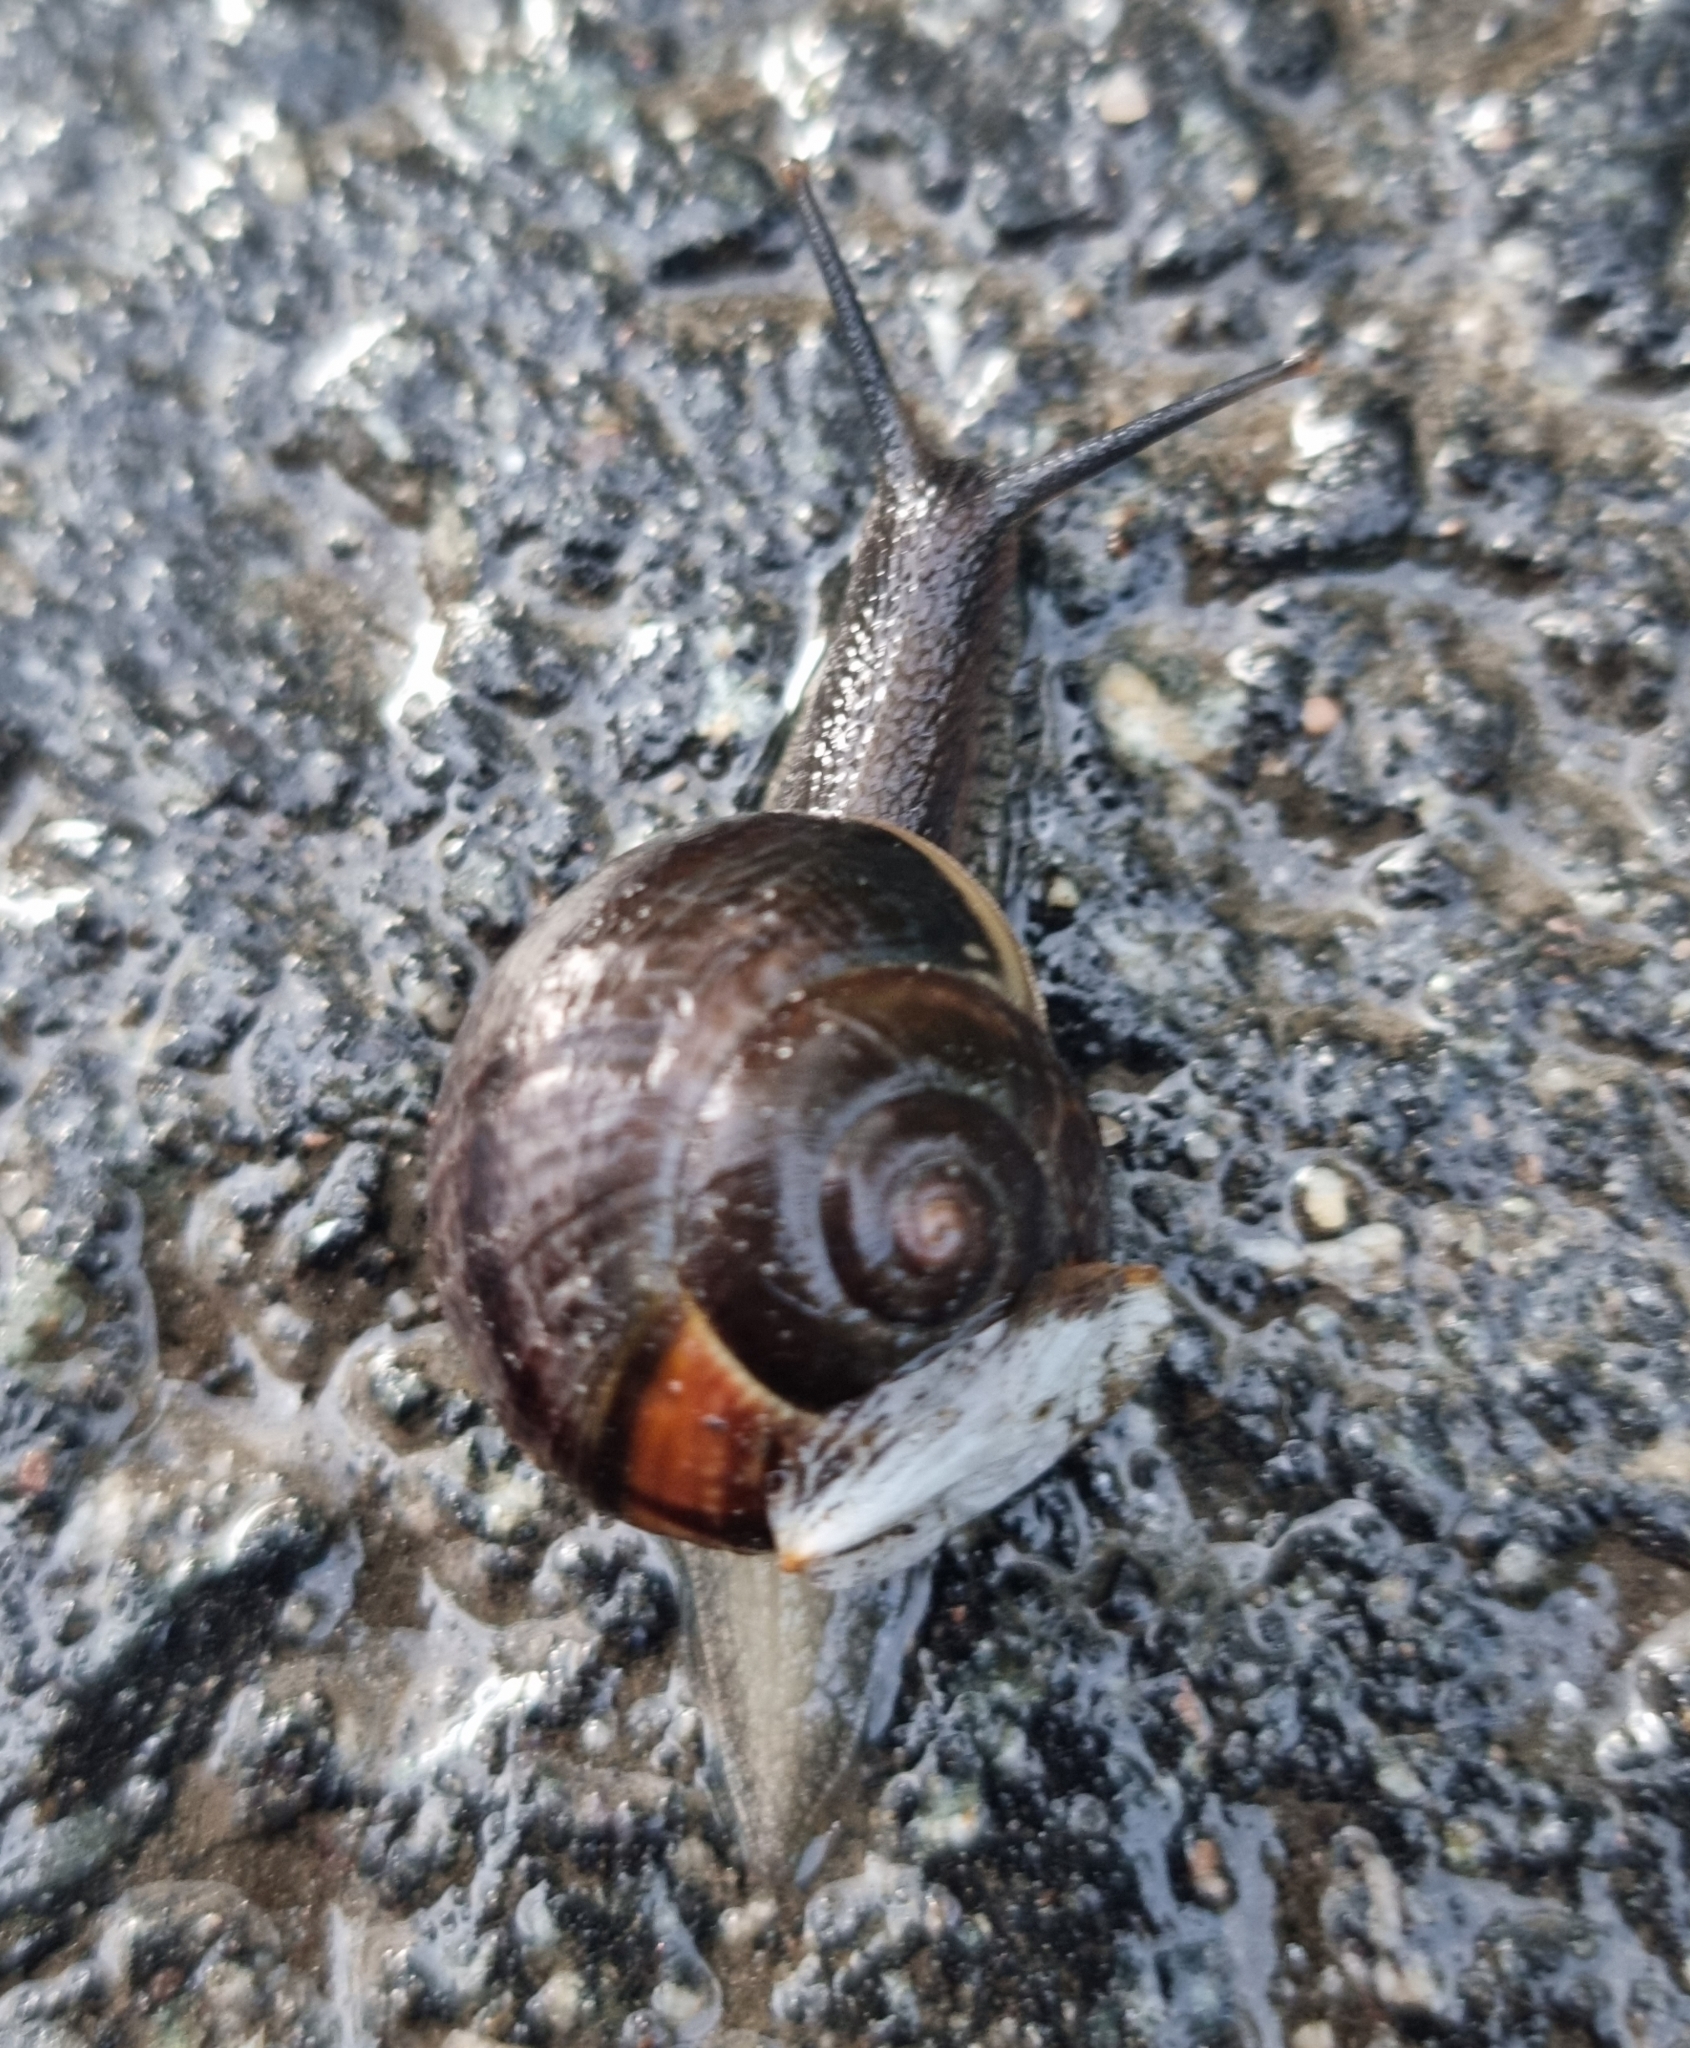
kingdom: Animalia
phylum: Mollusca
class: Gastropoda
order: Stylommatophora
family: Helicidae
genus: Arianta
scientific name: Arianta arbustorum
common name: Copse snail
